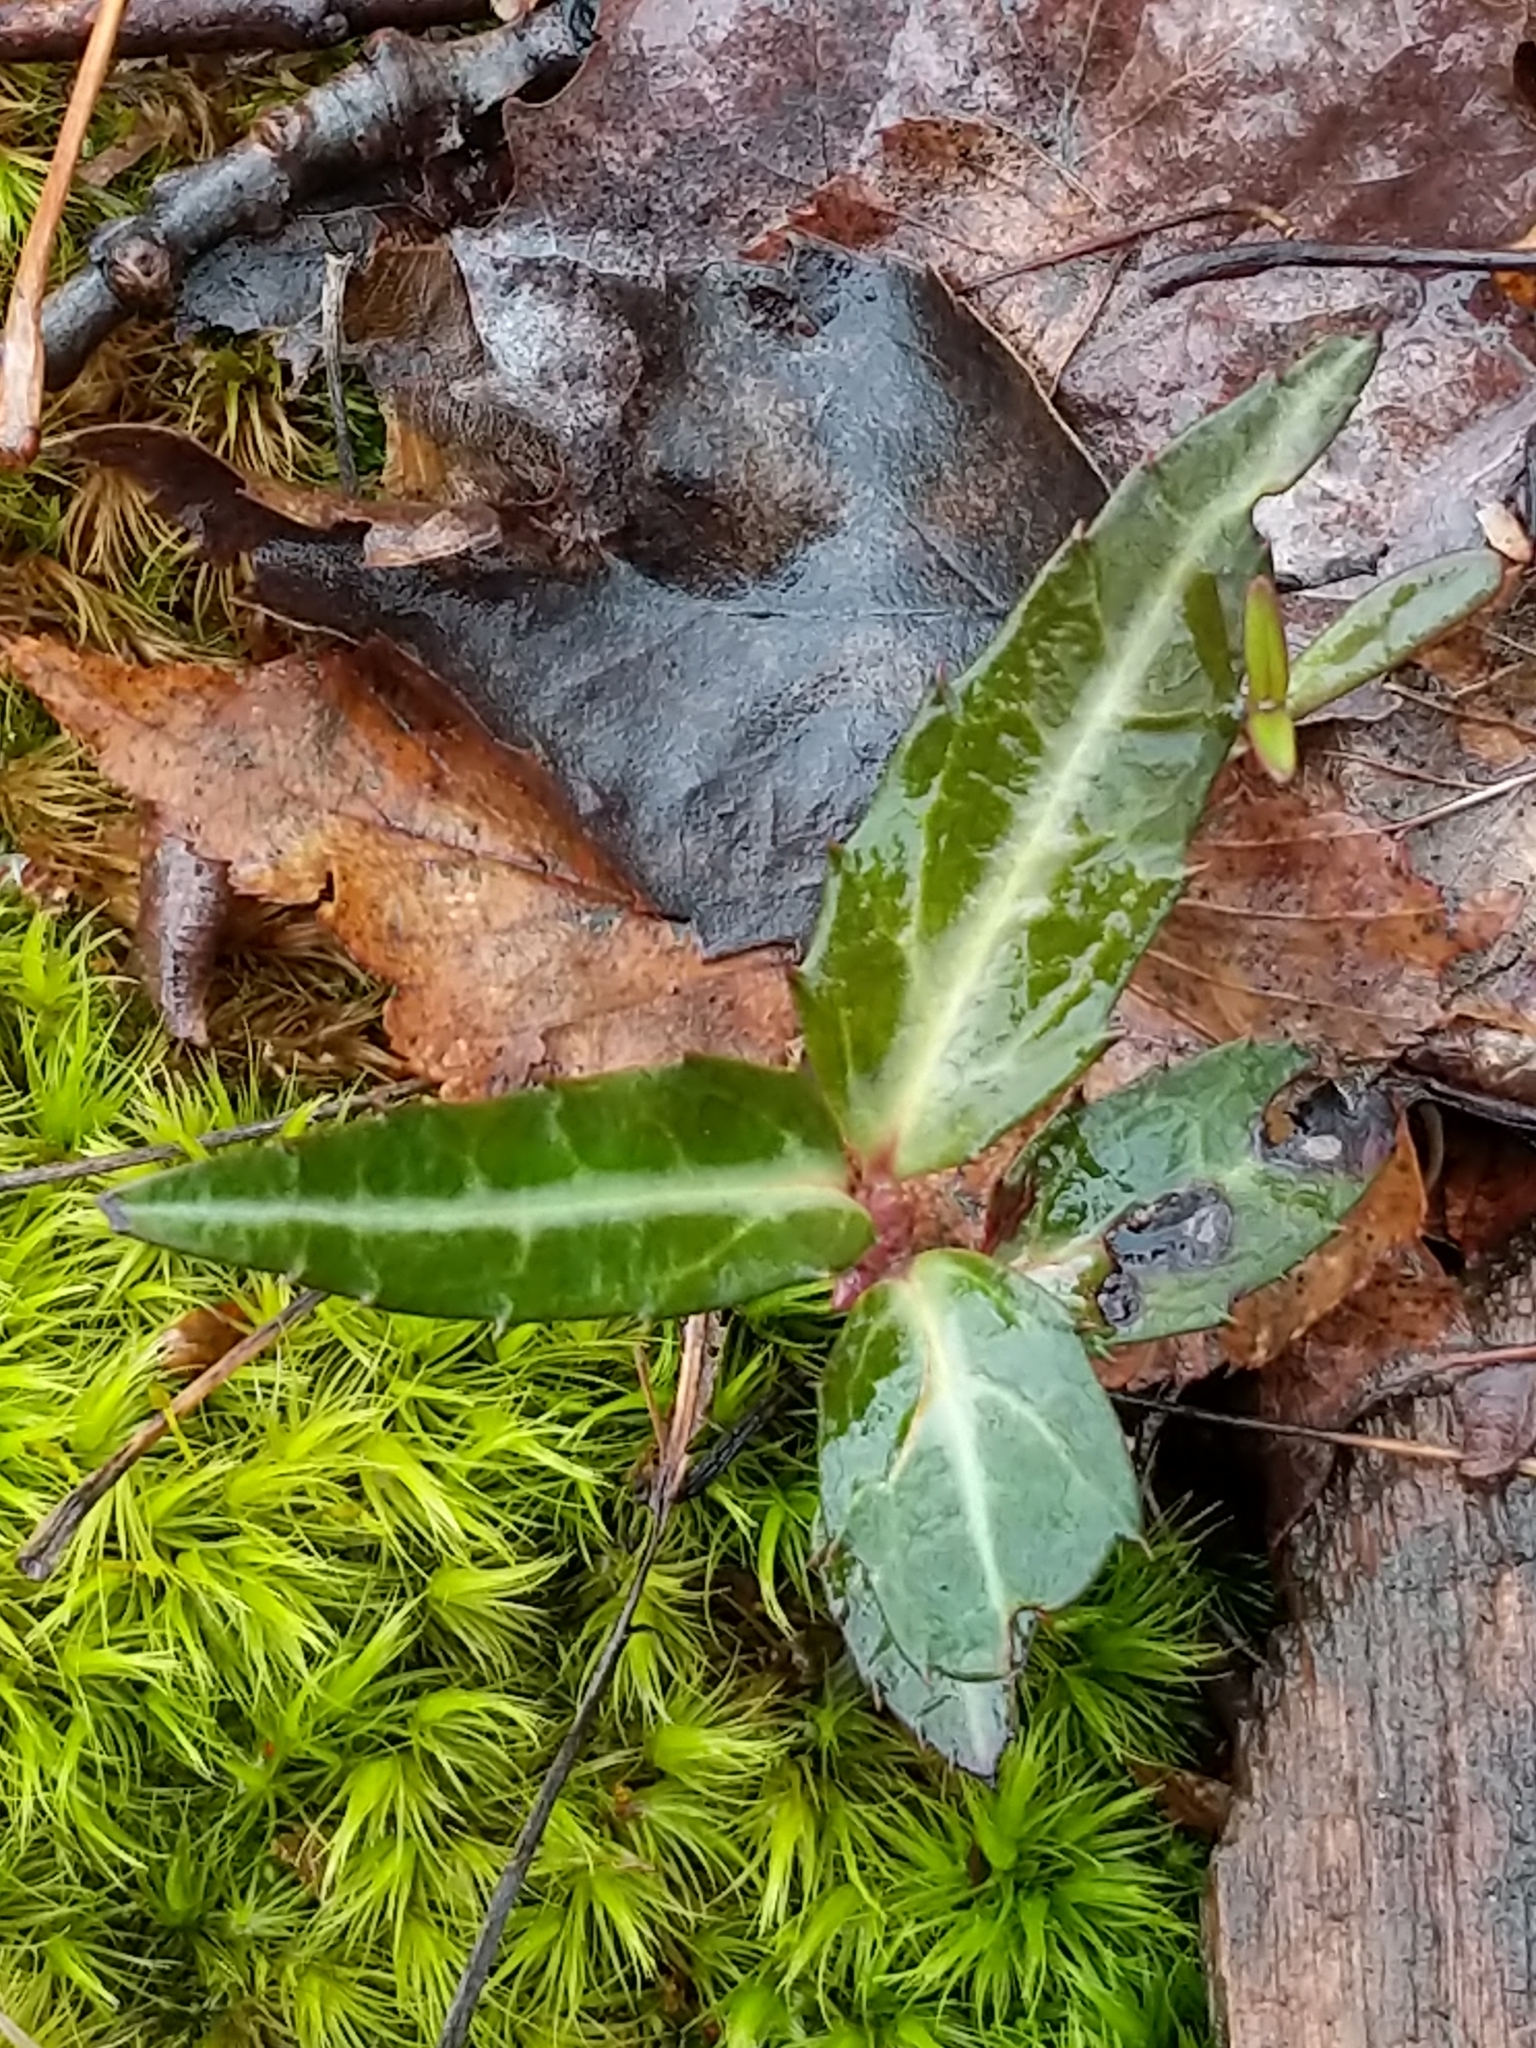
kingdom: Plantae
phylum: Tracheophyta
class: Magnoliopsida
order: Ericales
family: Ericaceae
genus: Chimaphila
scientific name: Chimaphila maculata
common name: Spotted pipsissewa
